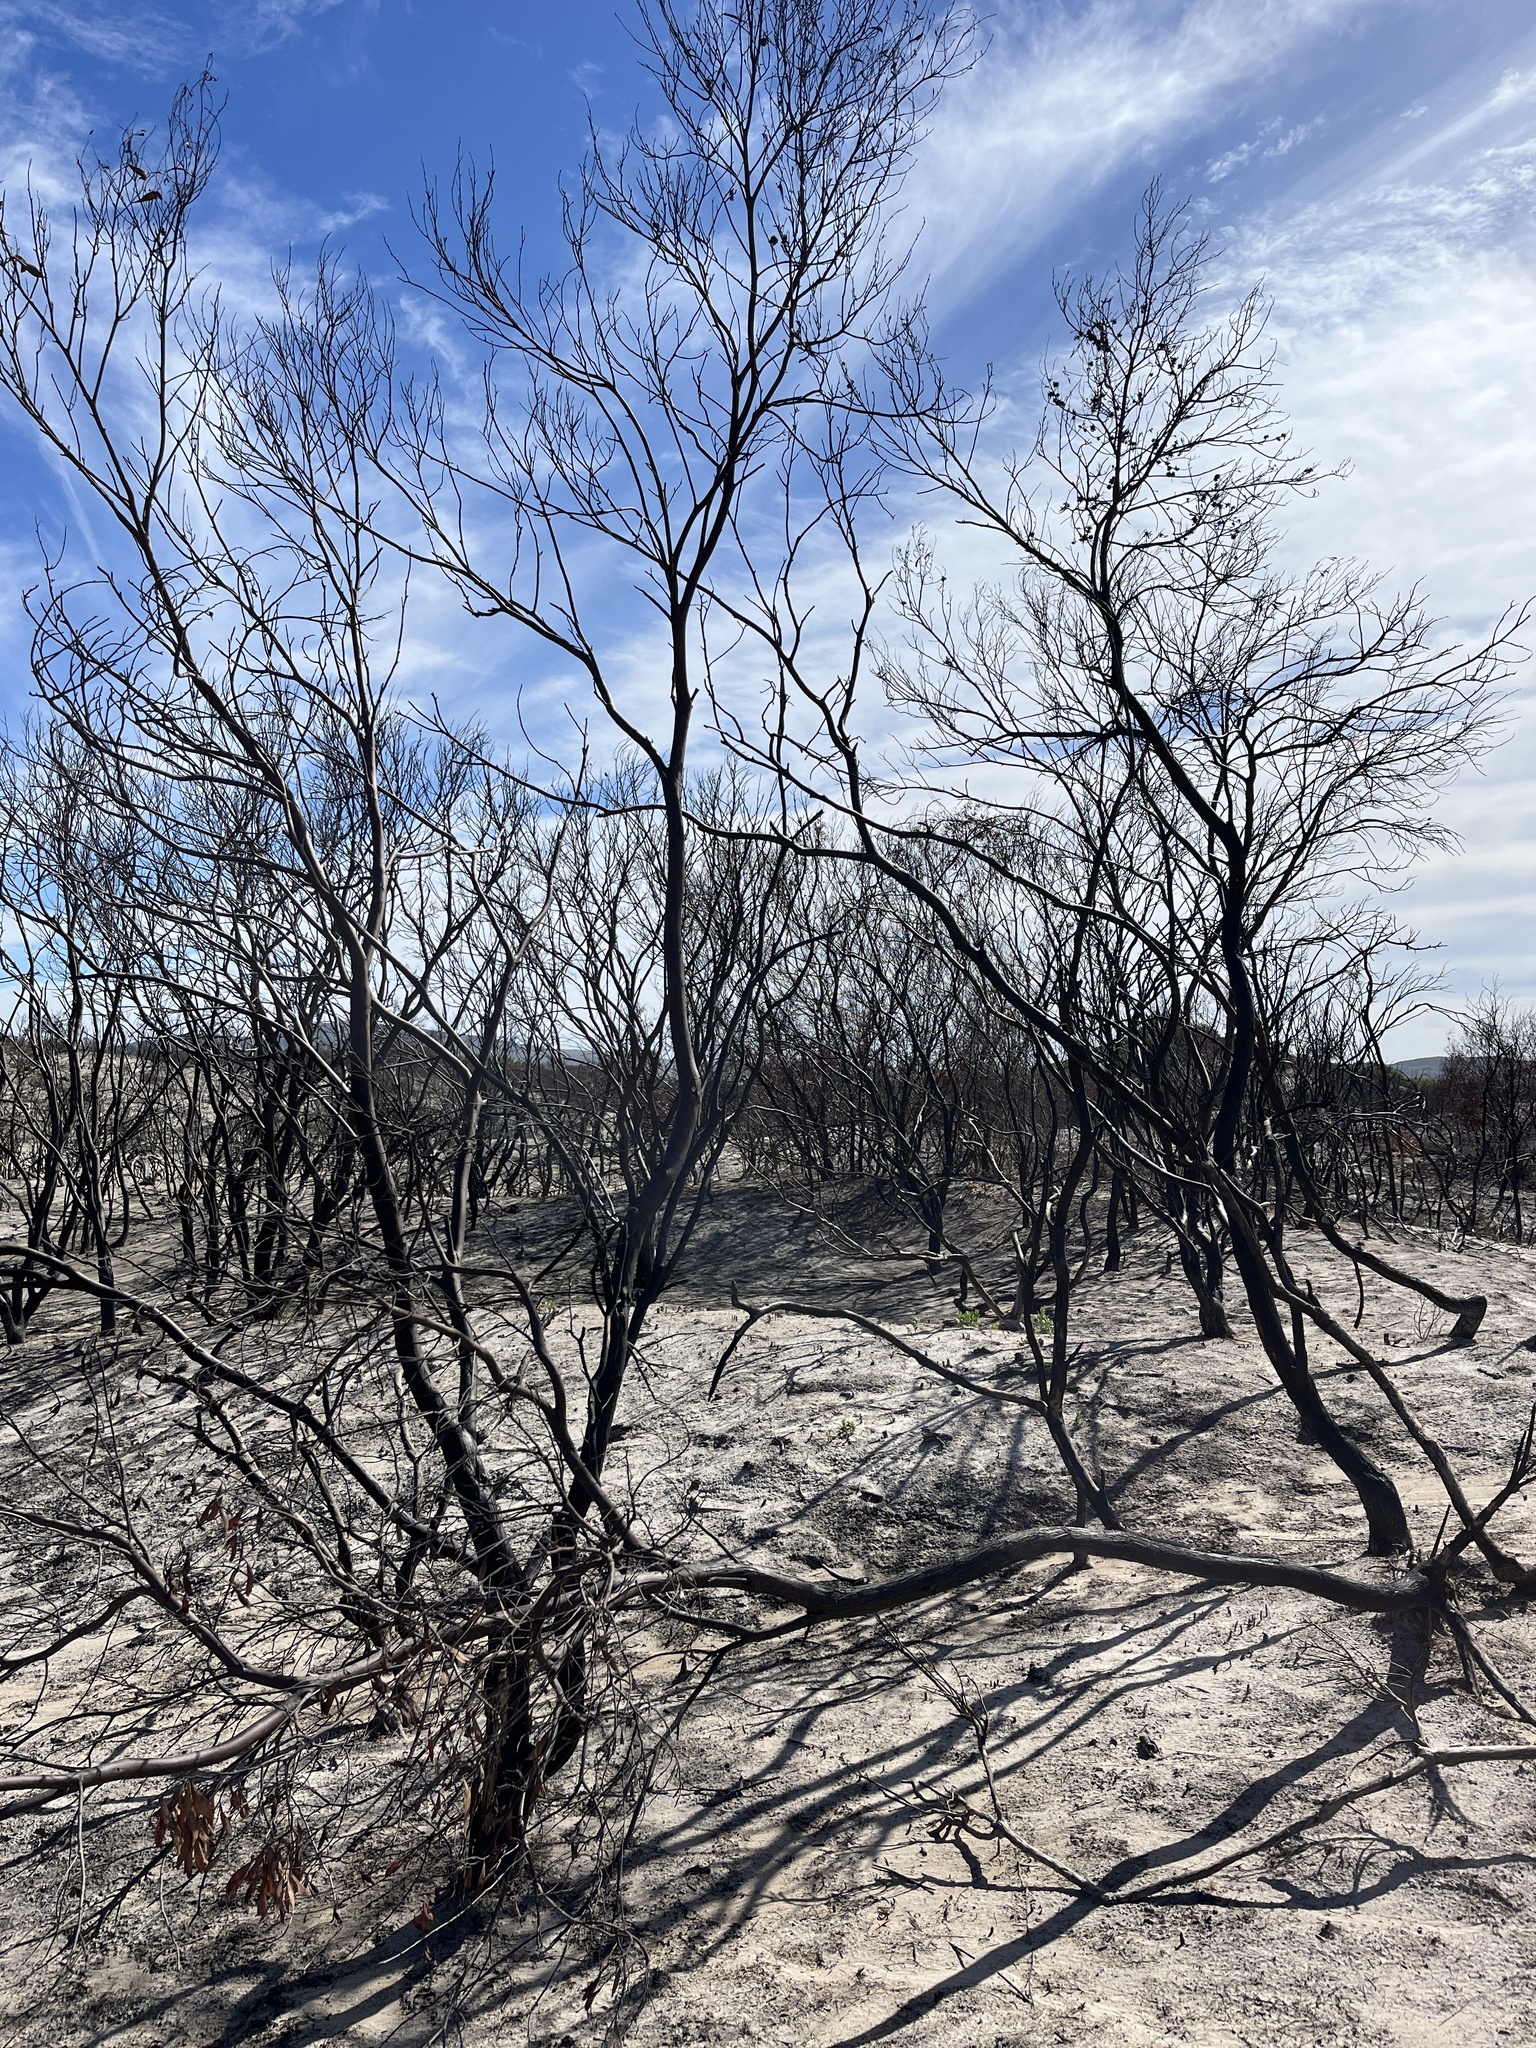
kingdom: Plantae
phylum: Tracheophyta
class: Magnoliopsida
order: Sapindales
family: Anacardiaceae
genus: Searsia
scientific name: Searsia laevigata
